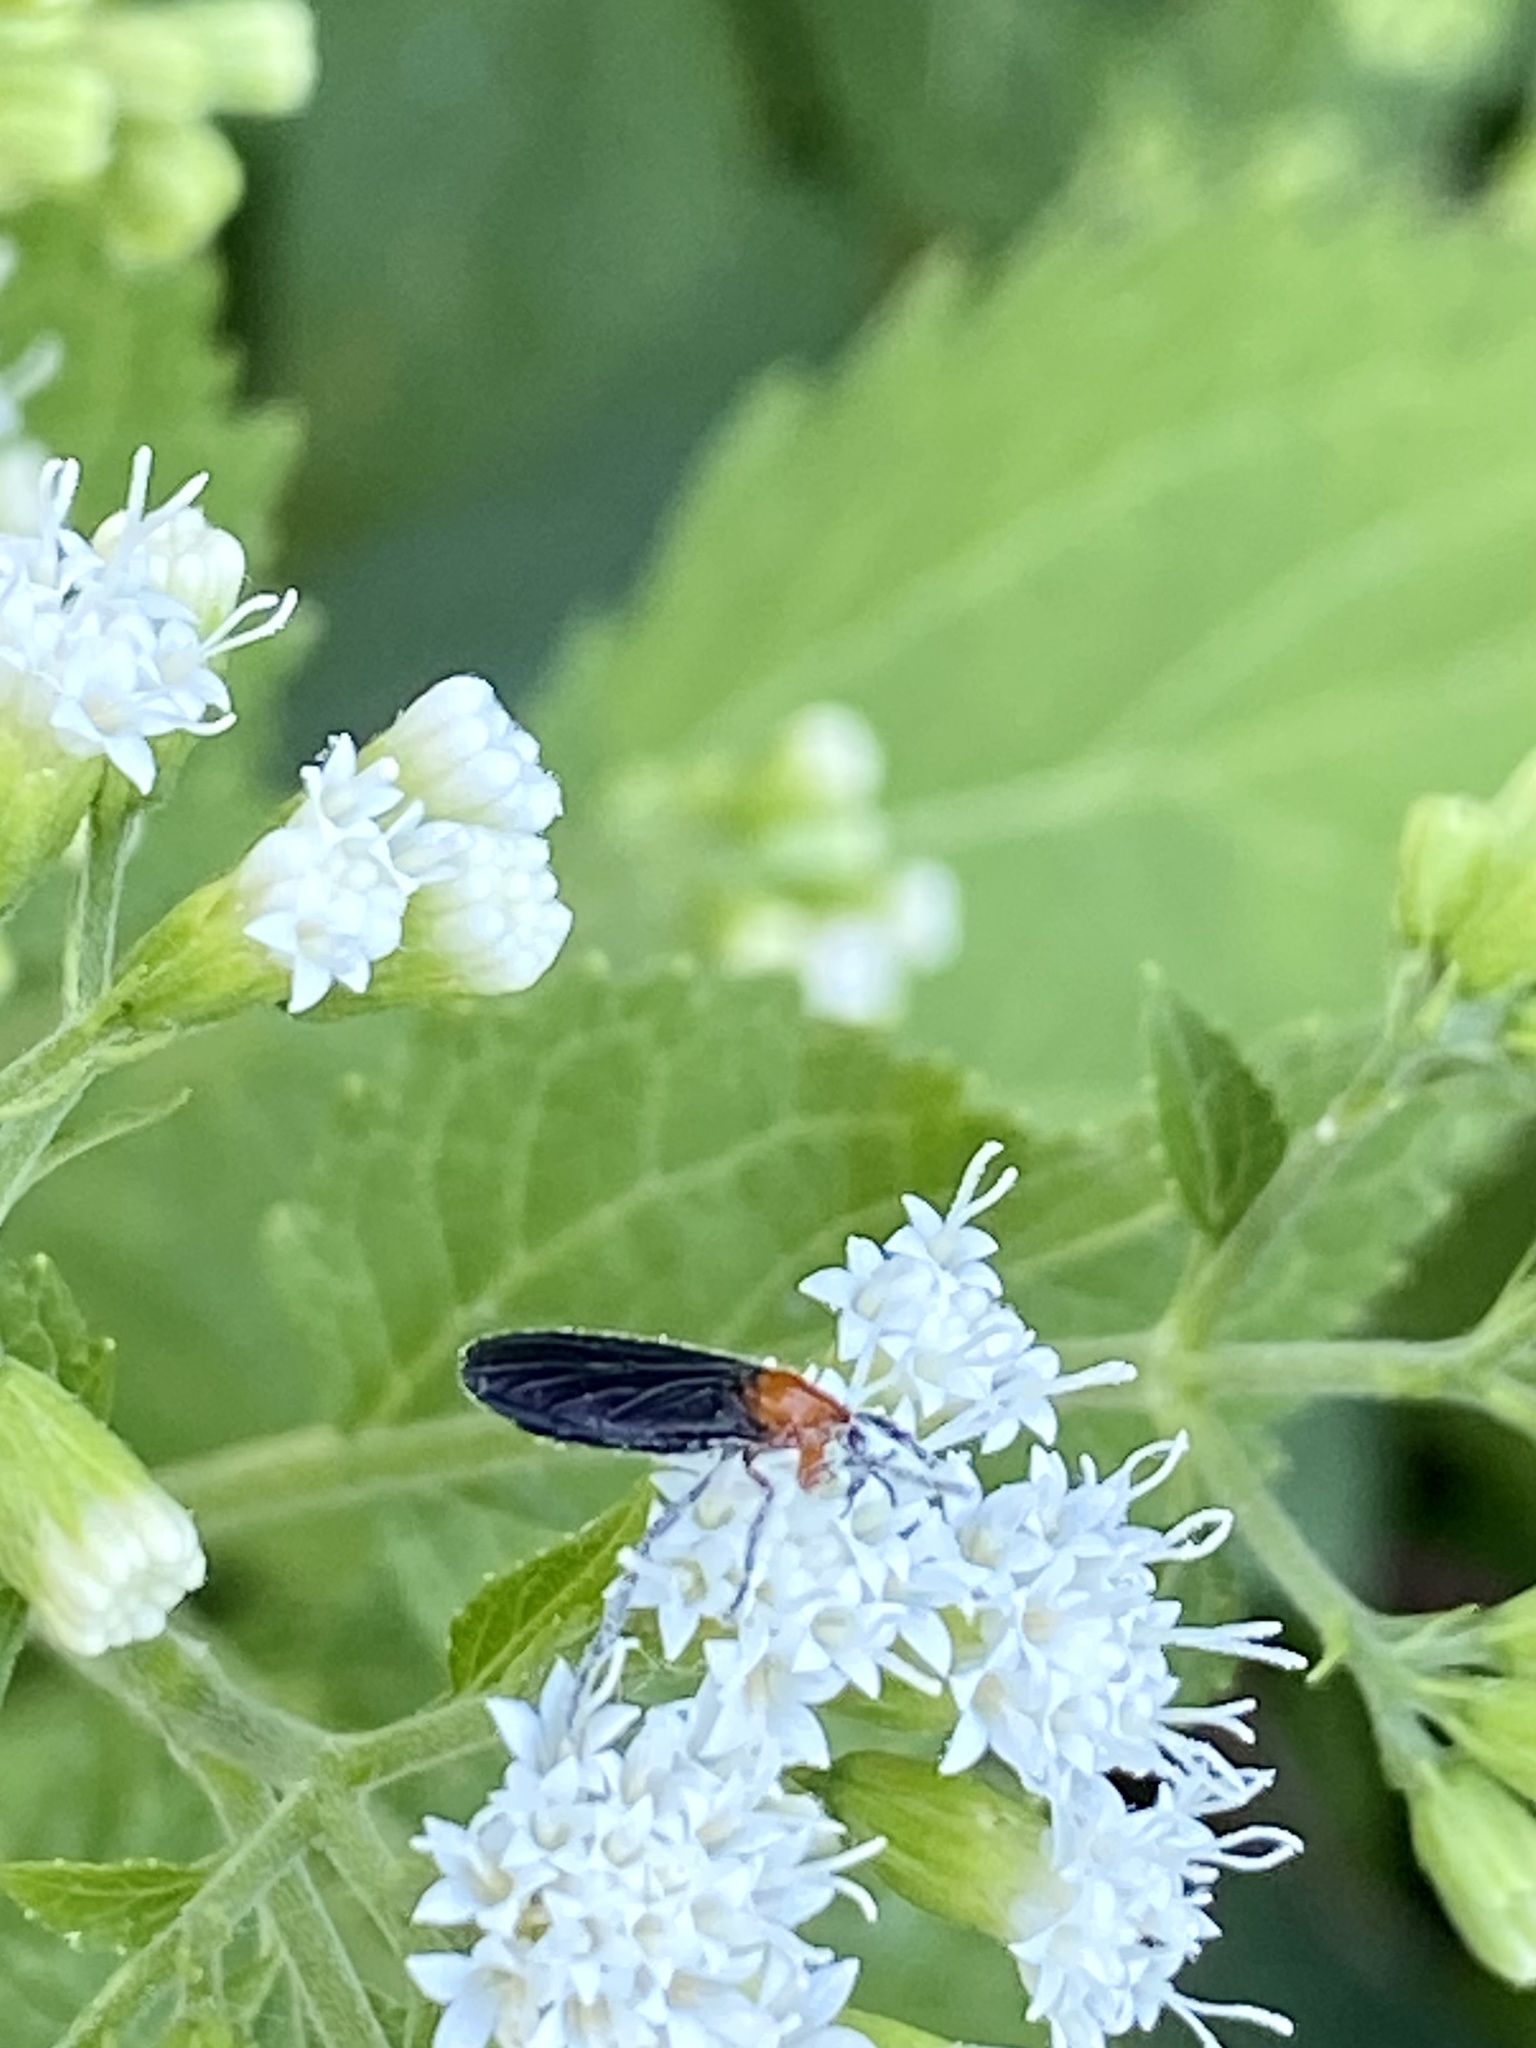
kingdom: Animalia
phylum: Arthropoda
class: Insecta
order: Diptera
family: Bibionidae
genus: Dilophus
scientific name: Dilophus spinipes
